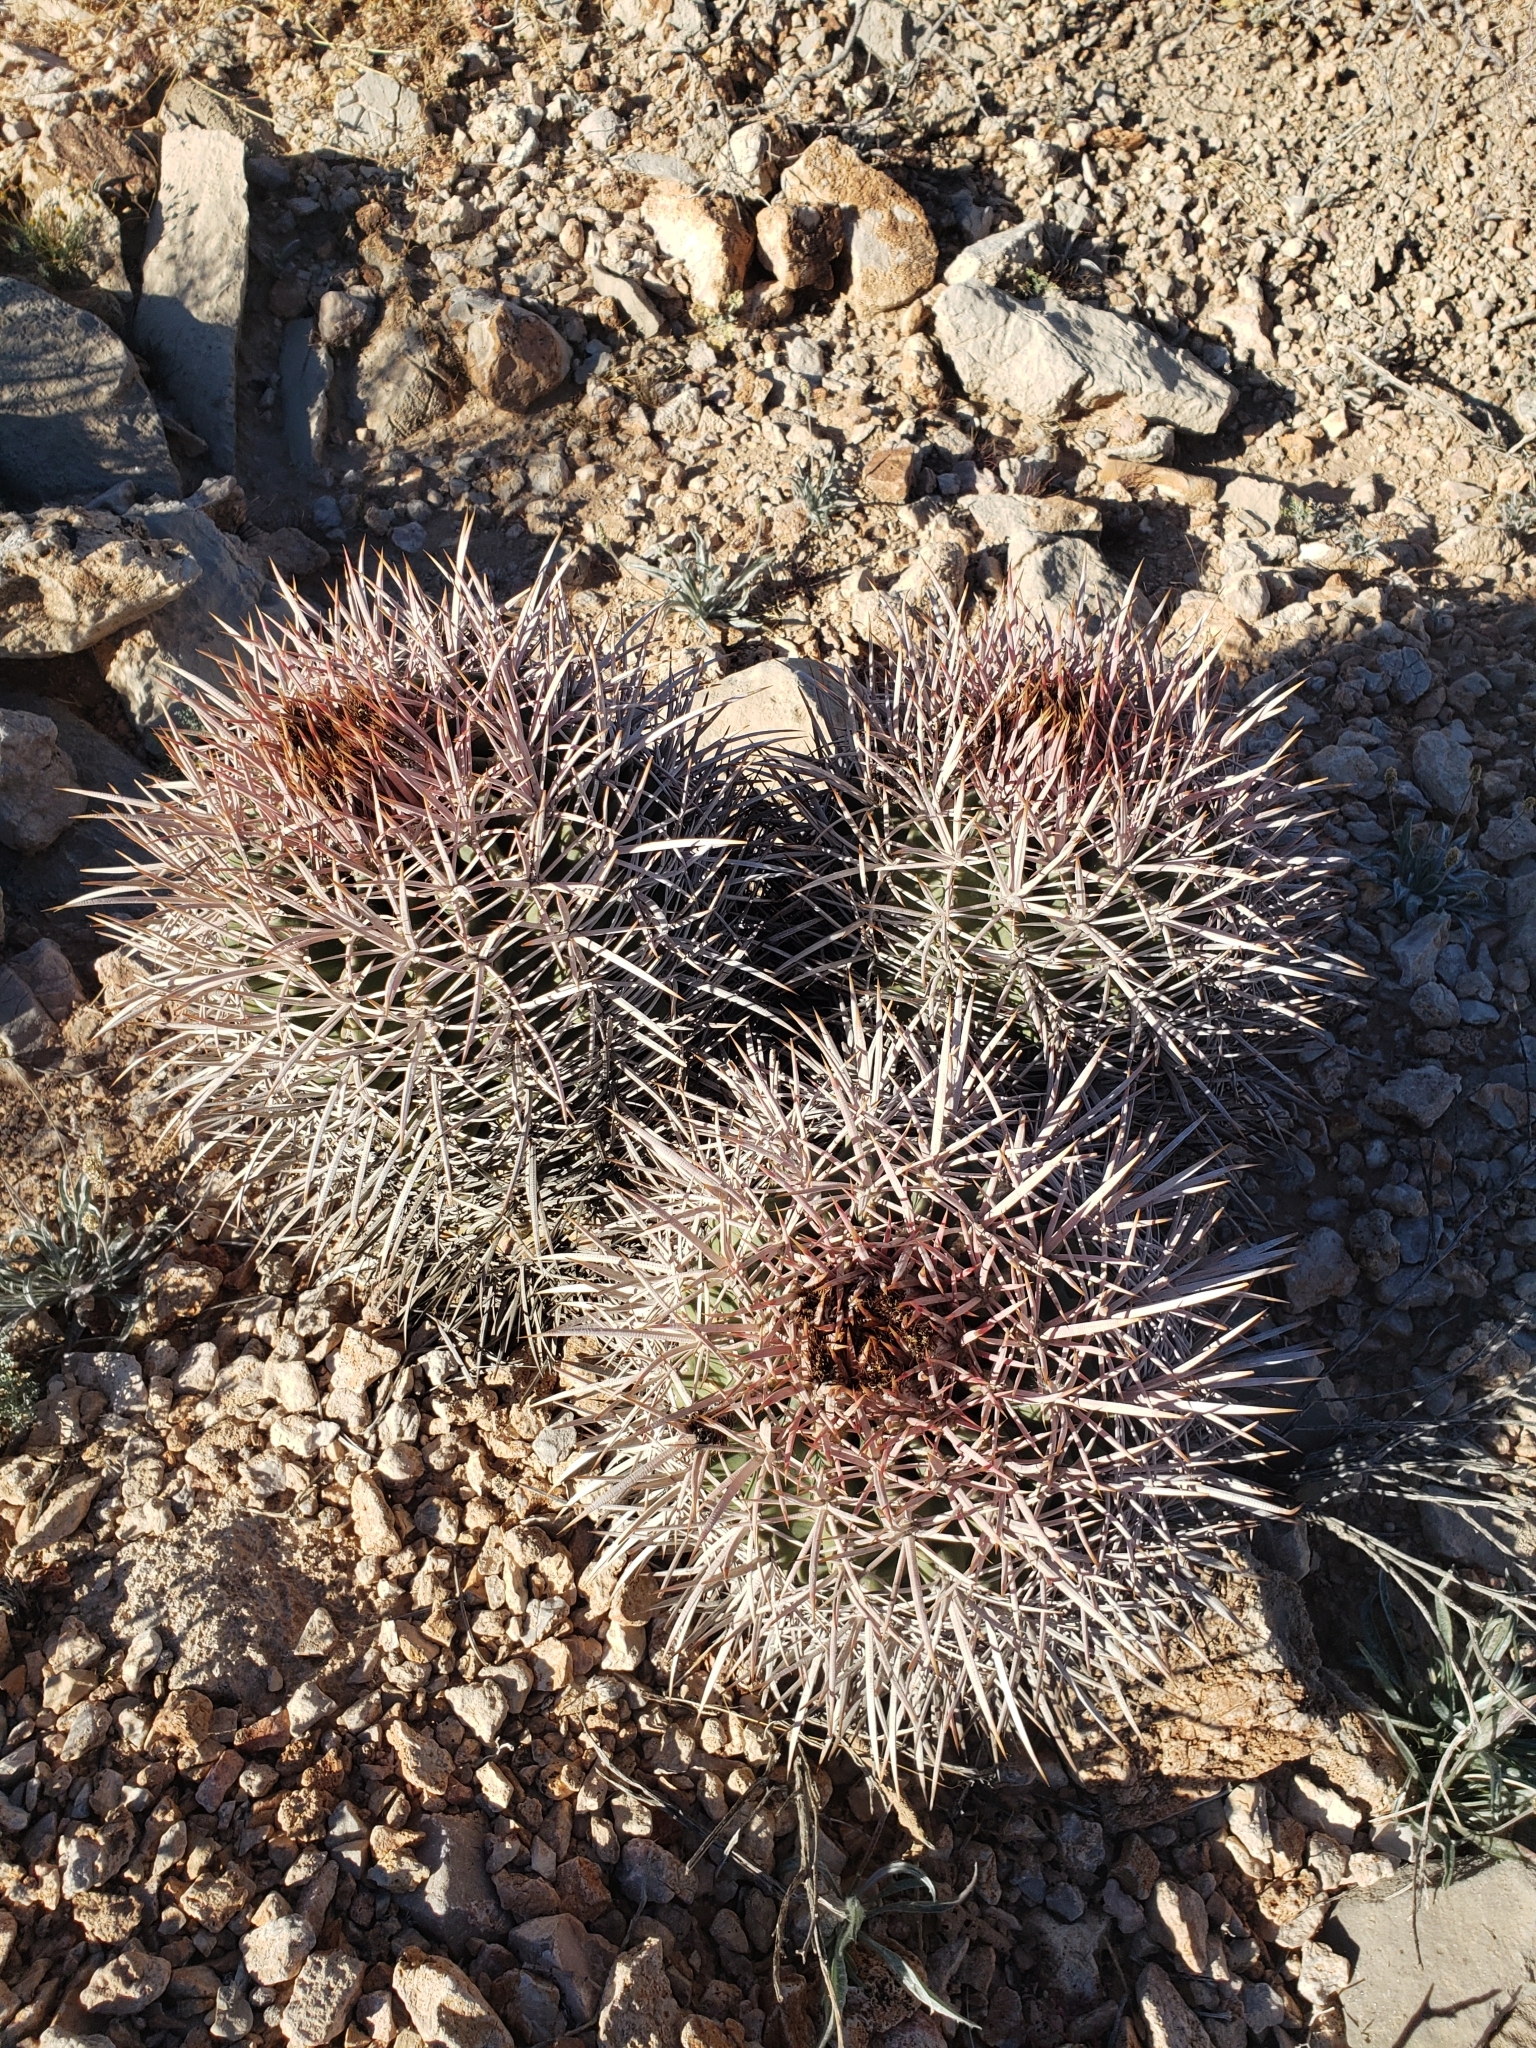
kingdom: Plantae
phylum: Tracheophyta
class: Magnoliopsida
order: Caryophyllales
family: Cactaceae
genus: Echinocactus
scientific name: Echinocactus polycephalus
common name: Cottontop cactus
